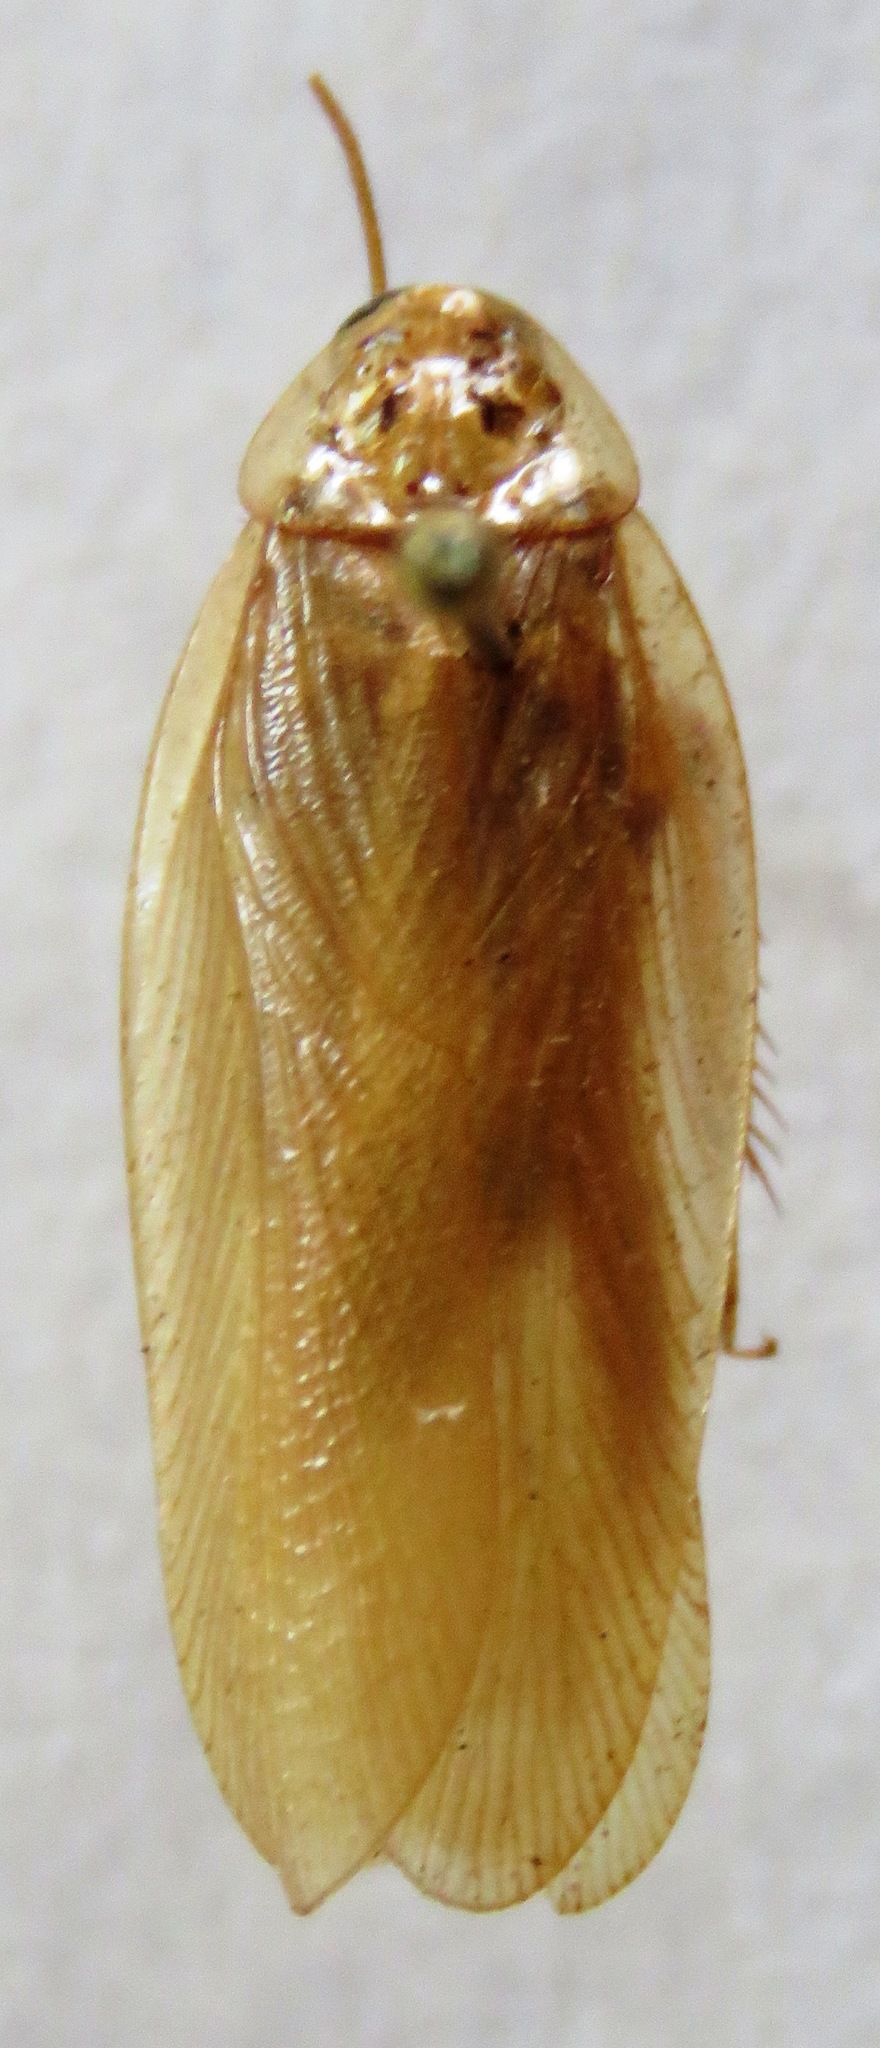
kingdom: Animalia
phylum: Arthropoda
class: Insecta
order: Blattodea
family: Ectobiidae
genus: Latiblattella
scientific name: Latiblattella angustifrons
